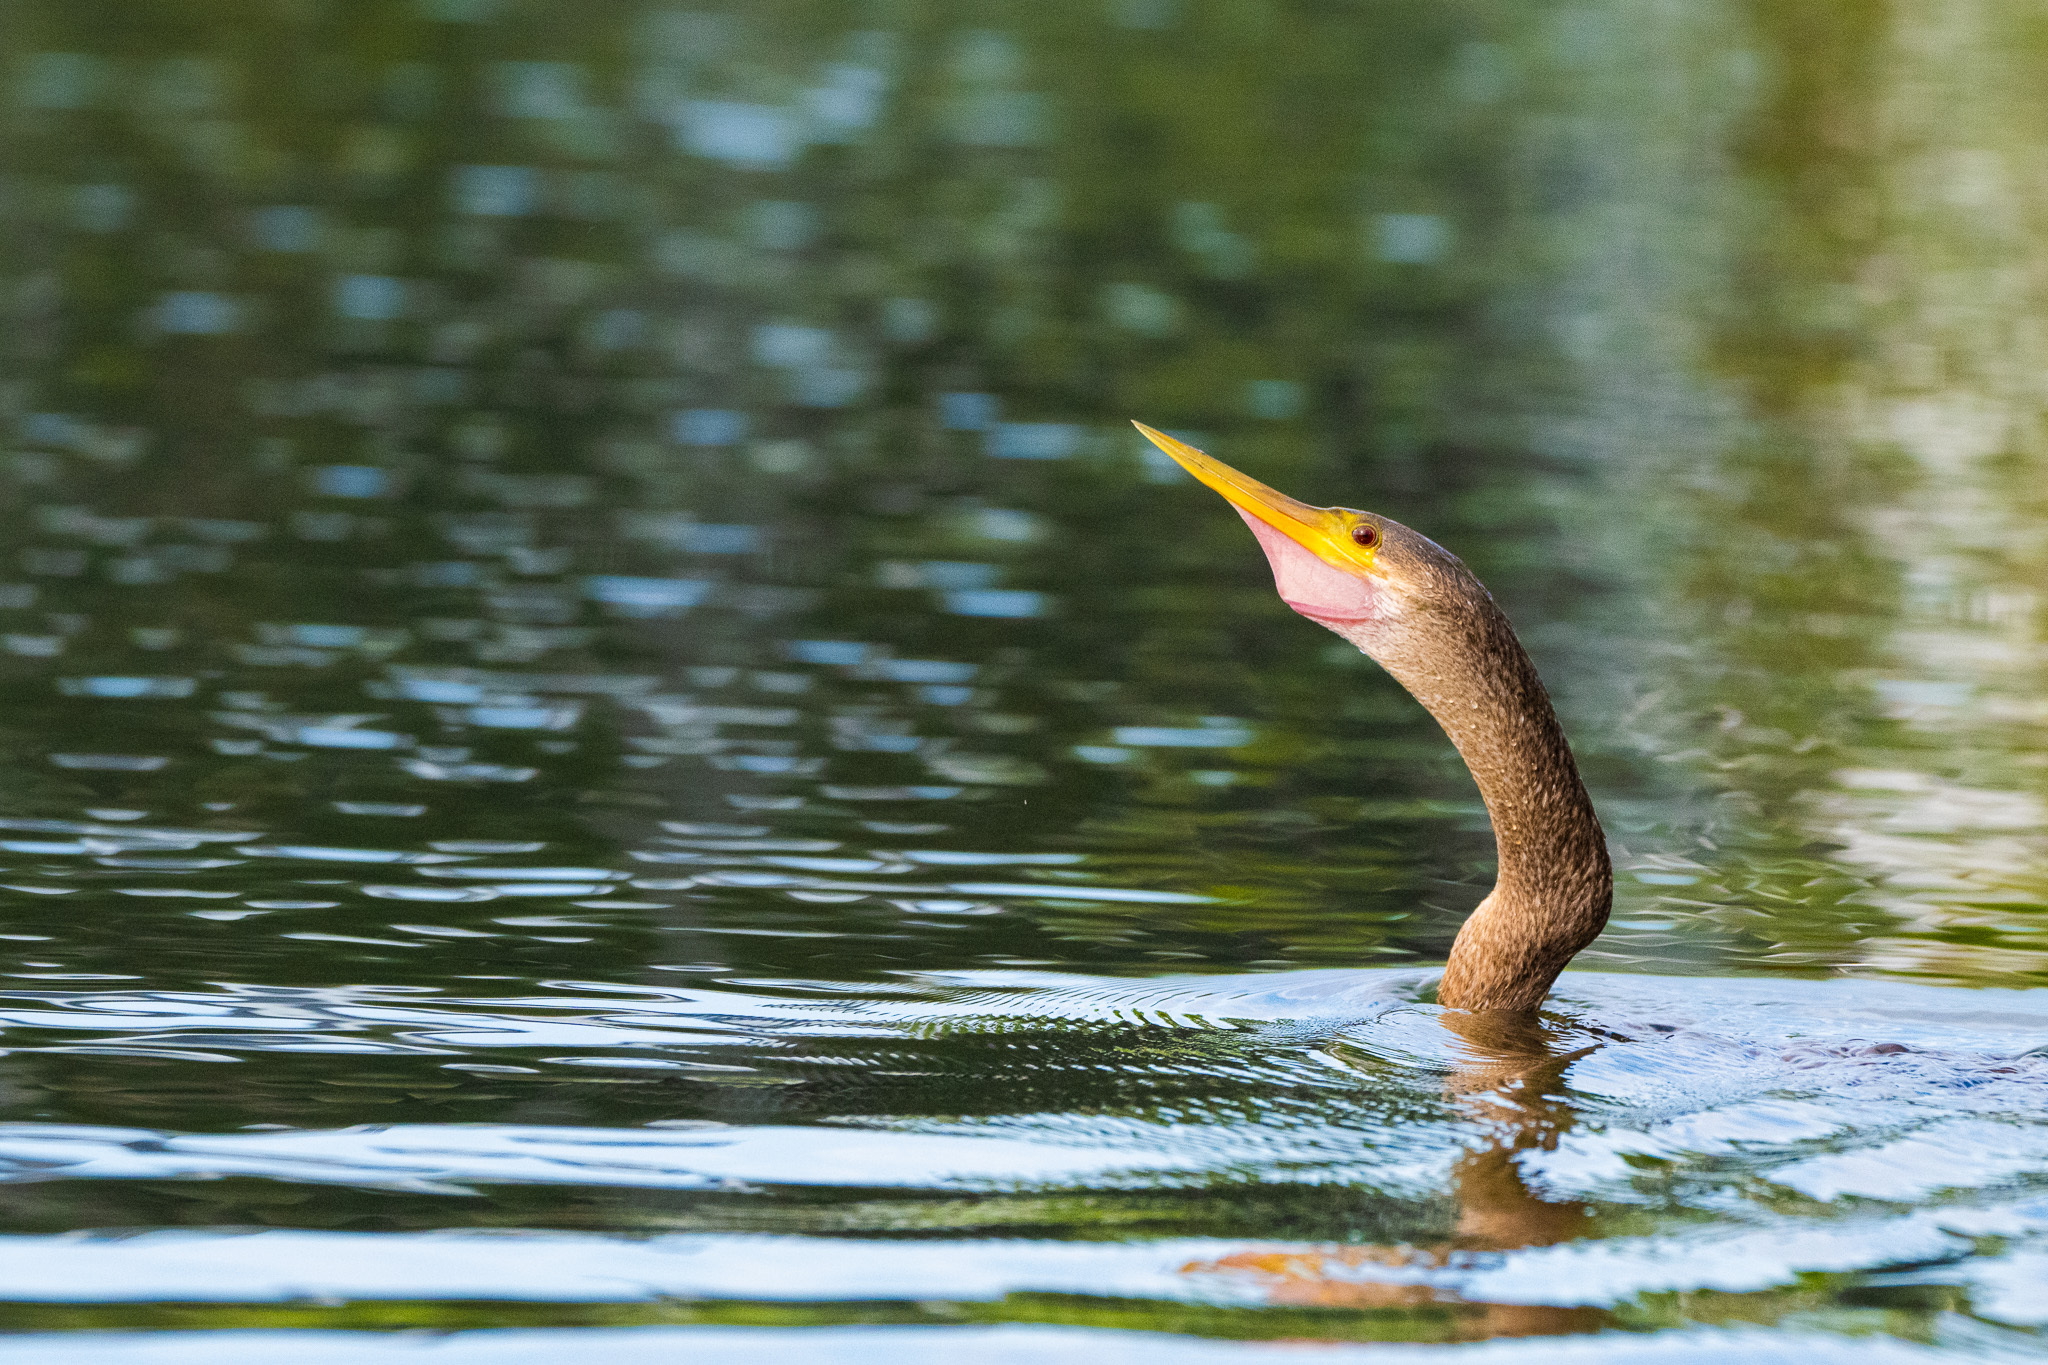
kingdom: Animalia
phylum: Chordata
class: Aves
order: Suliformes
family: Anhingidae
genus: Anhinga
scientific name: Anhinga anhinga
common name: Anhinga
